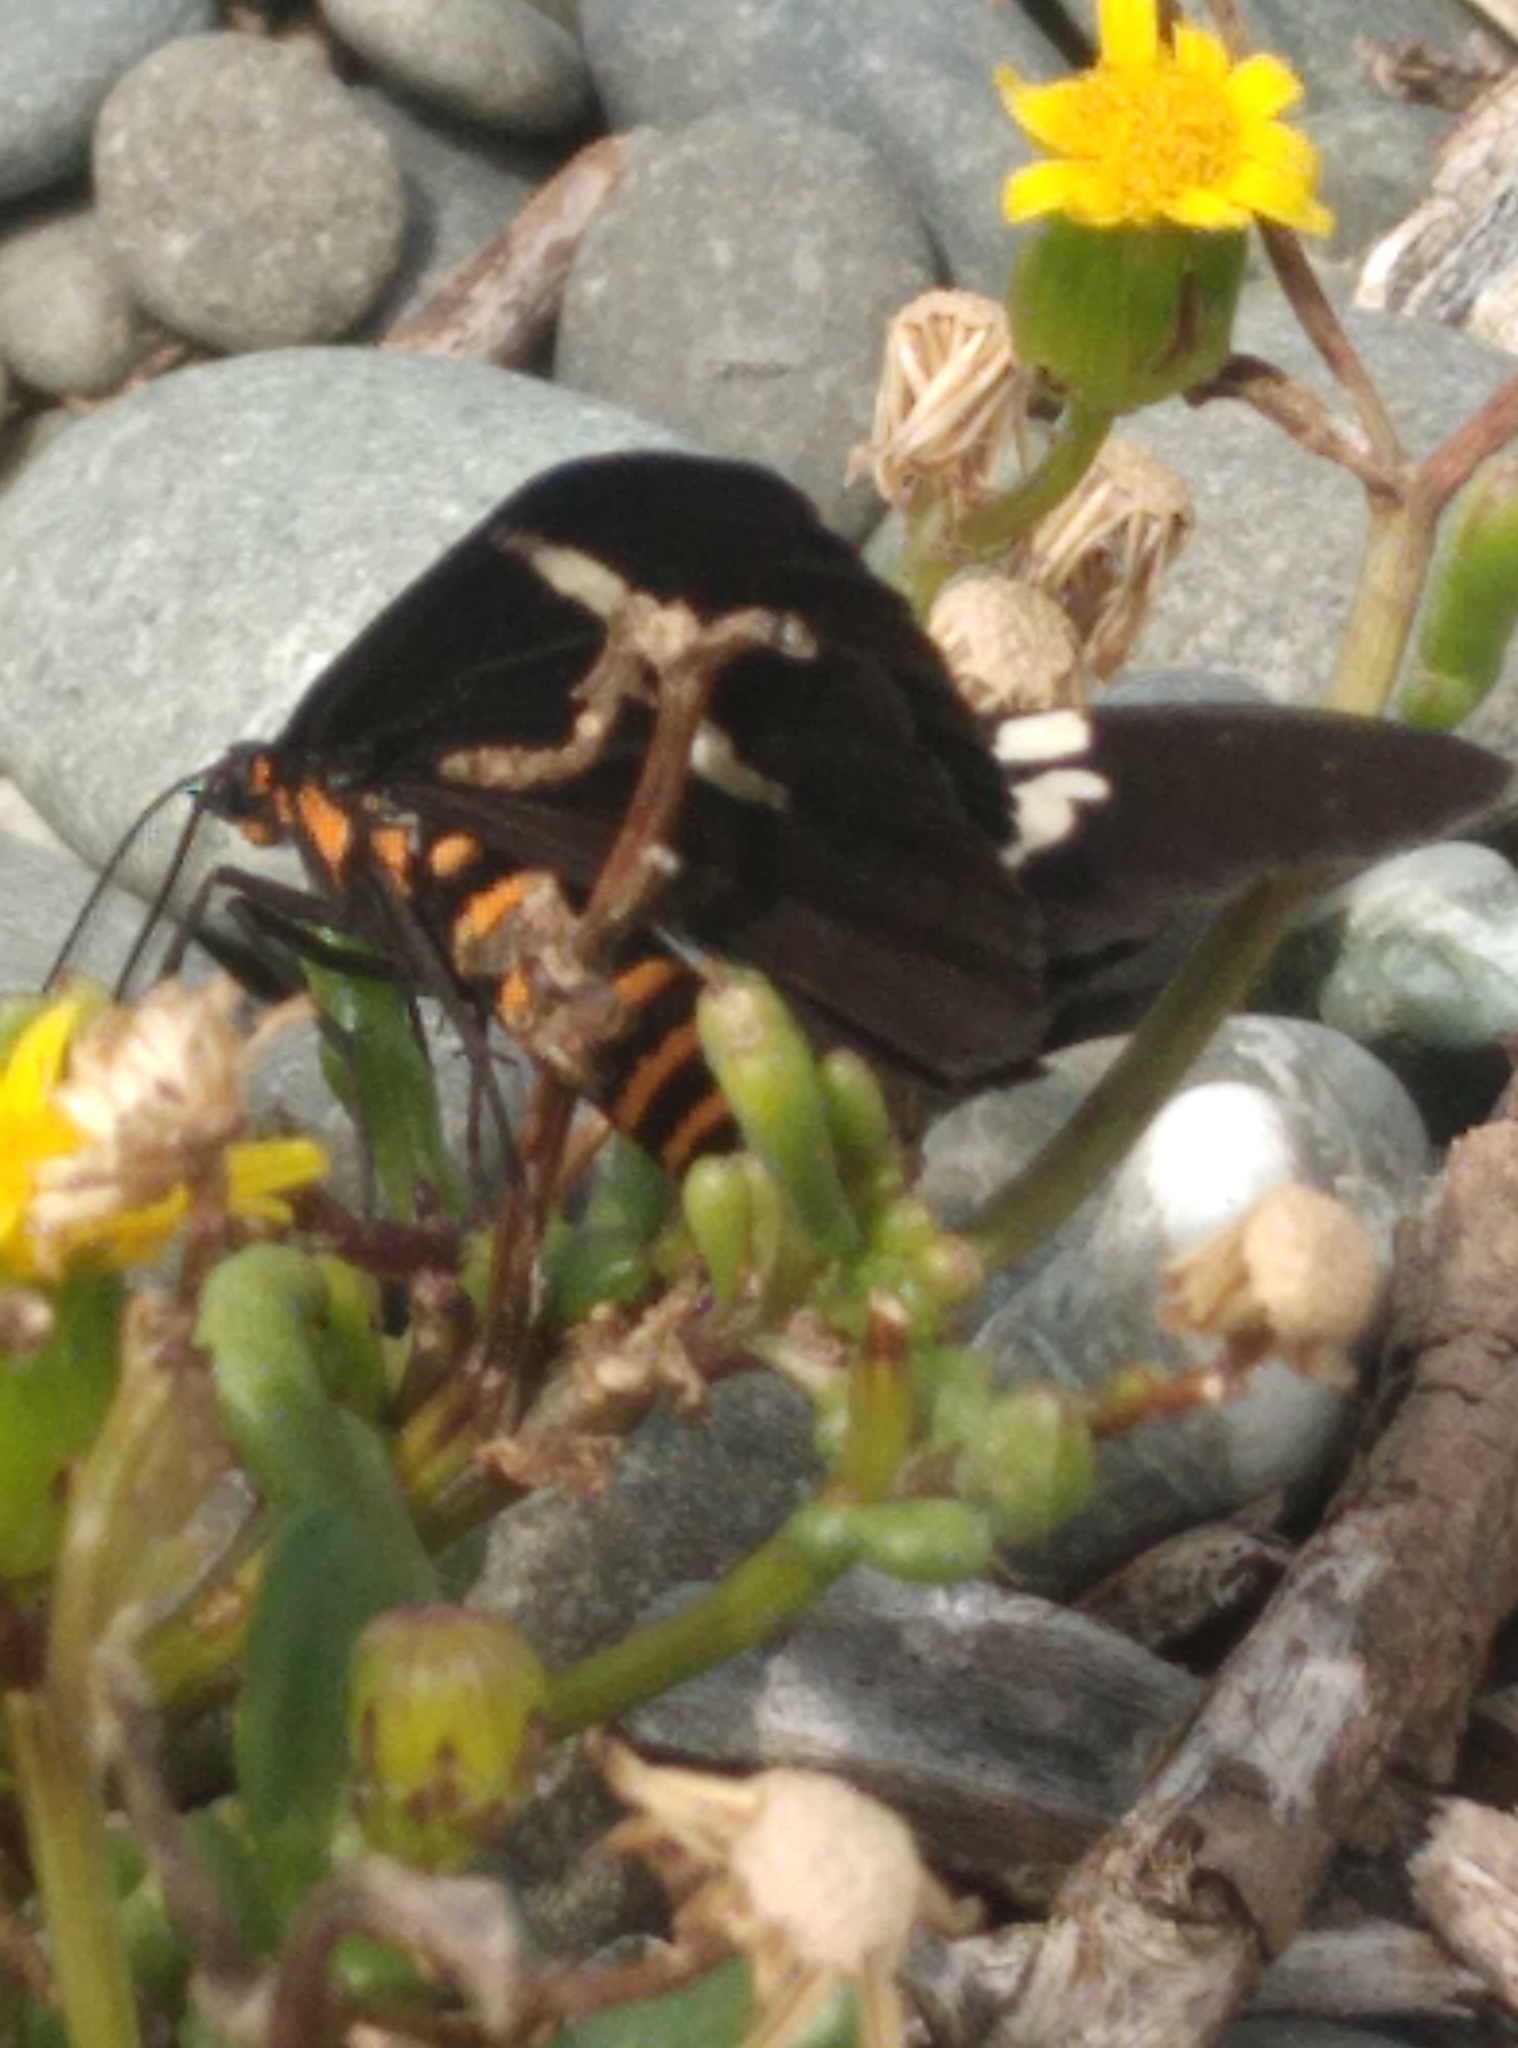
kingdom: Animalia
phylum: Arthropoda
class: Insecta
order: Lepidoptera
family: Erebidae
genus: Nyctemera
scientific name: Nyctemera annulatum
